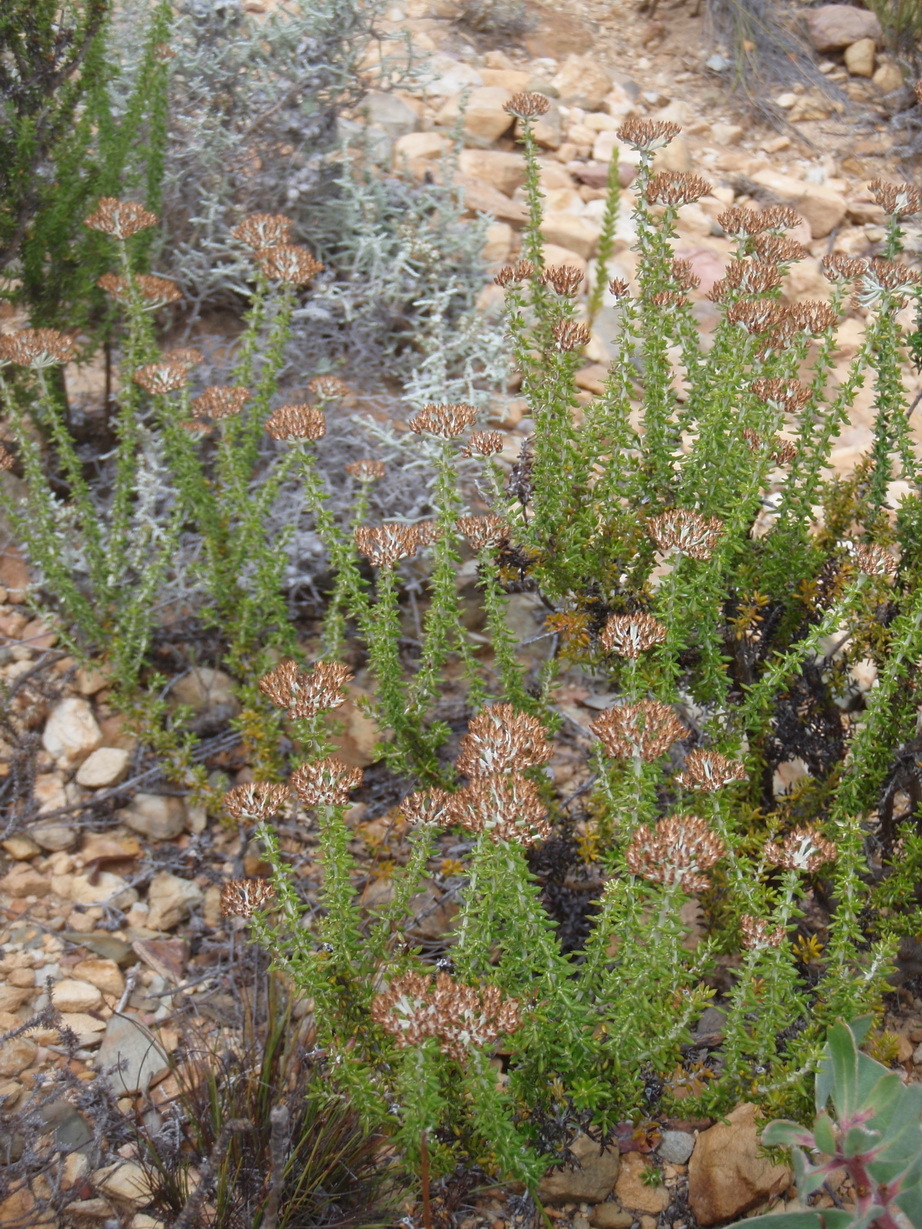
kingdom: Plantae
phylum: Tracheophyta
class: Magnoliopsida
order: Asterales
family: Asteraceae
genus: Metalasia
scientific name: Metalasia densa
